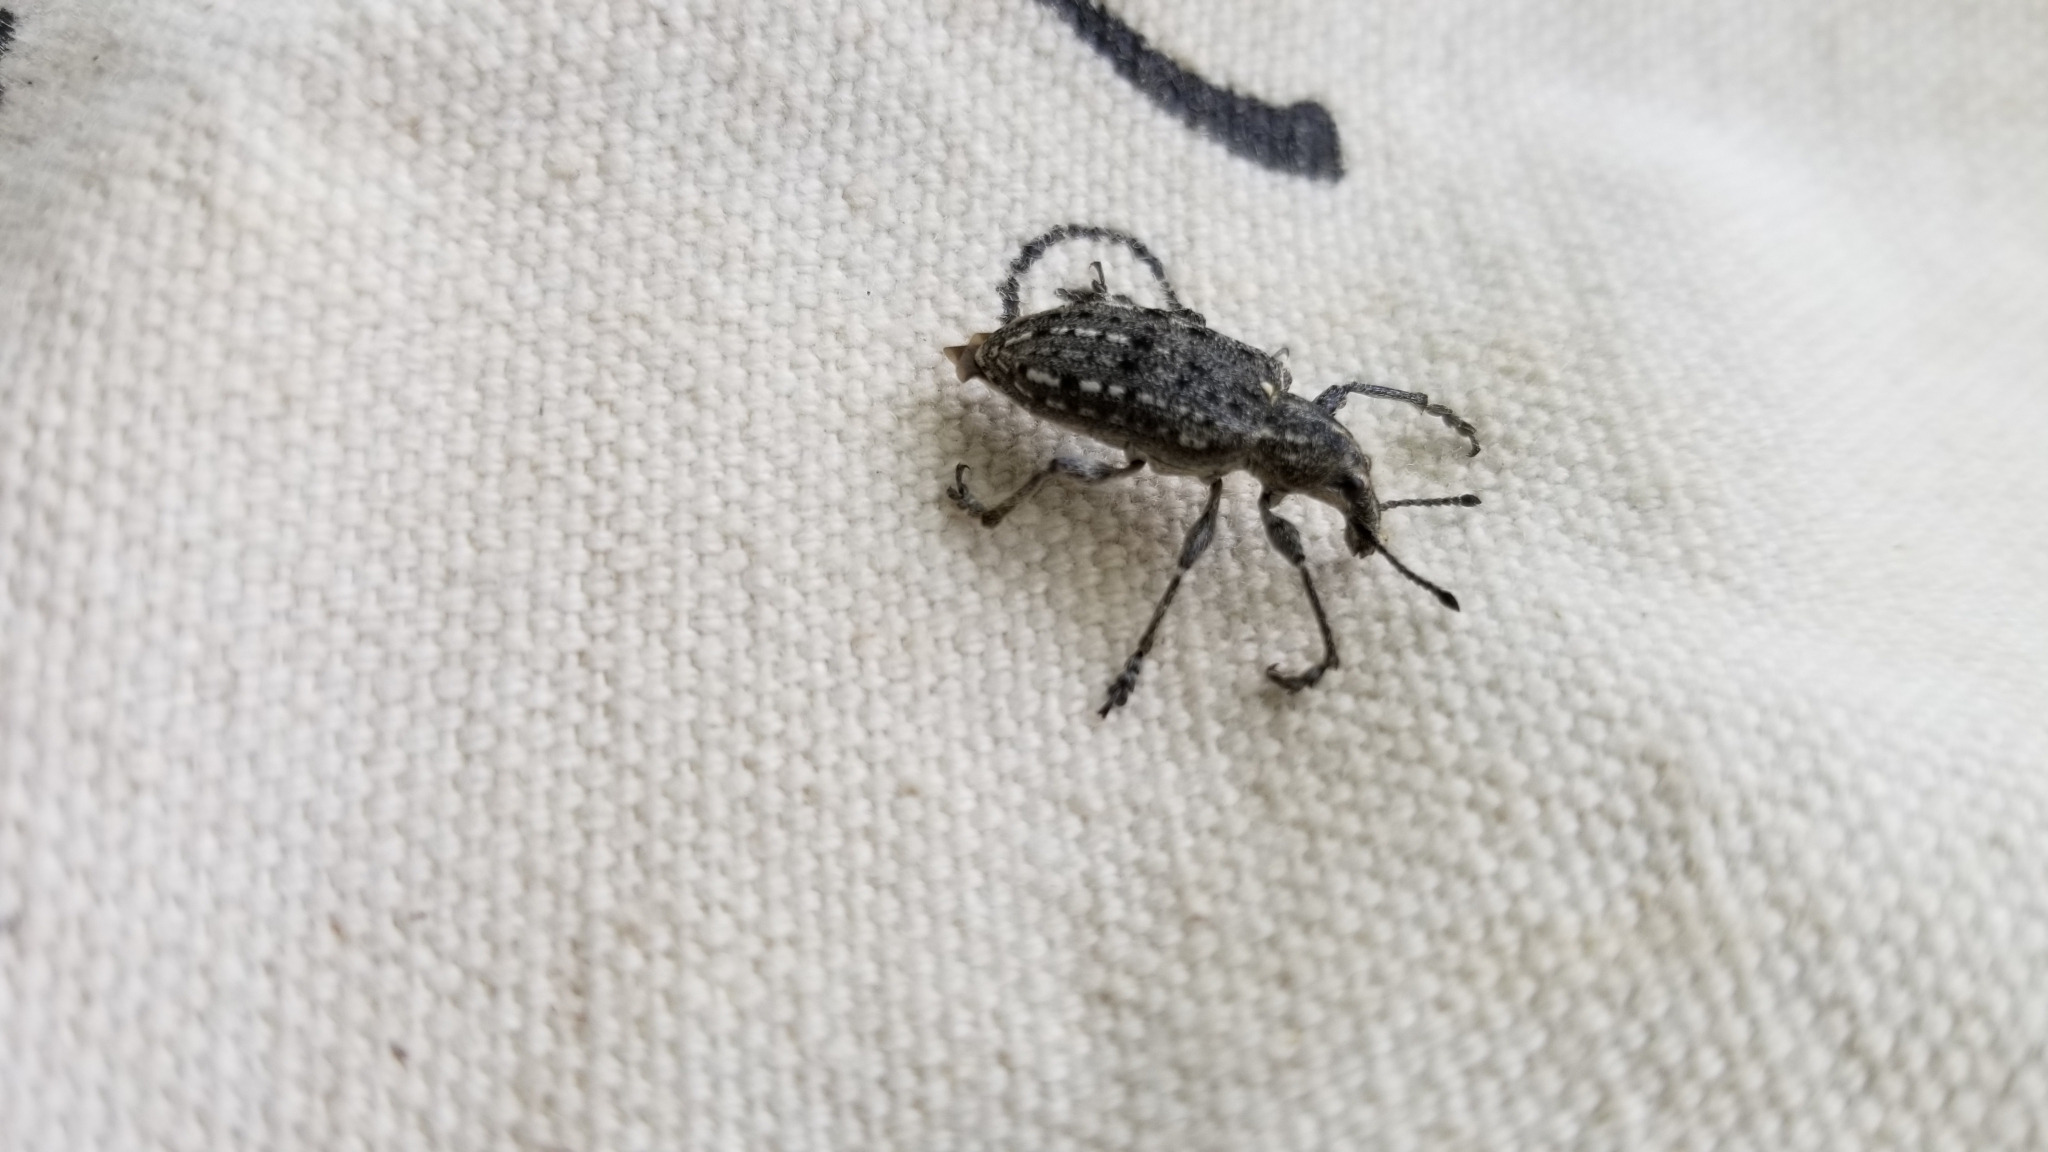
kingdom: Animalia
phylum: Arthropoda
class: Insecta
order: Coleoptera
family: Ithyceridae
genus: Ithycerus
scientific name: Ithycerus noveboracensis
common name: New york weevil
